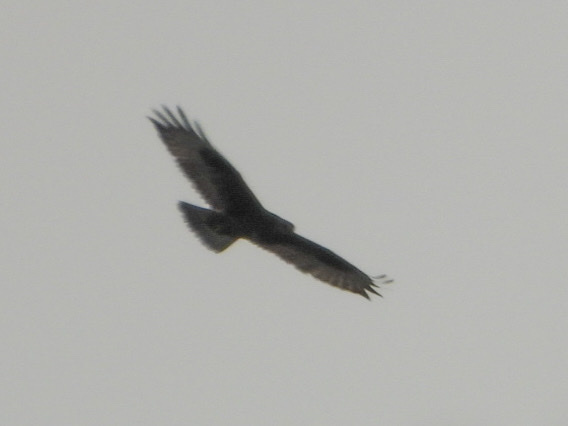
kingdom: Animalia
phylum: Chordata
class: Aves
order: Accipitriformes
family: Accipitridae
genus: Buteo
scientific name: Buteo lagopus
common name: Rough-legged buzzard
